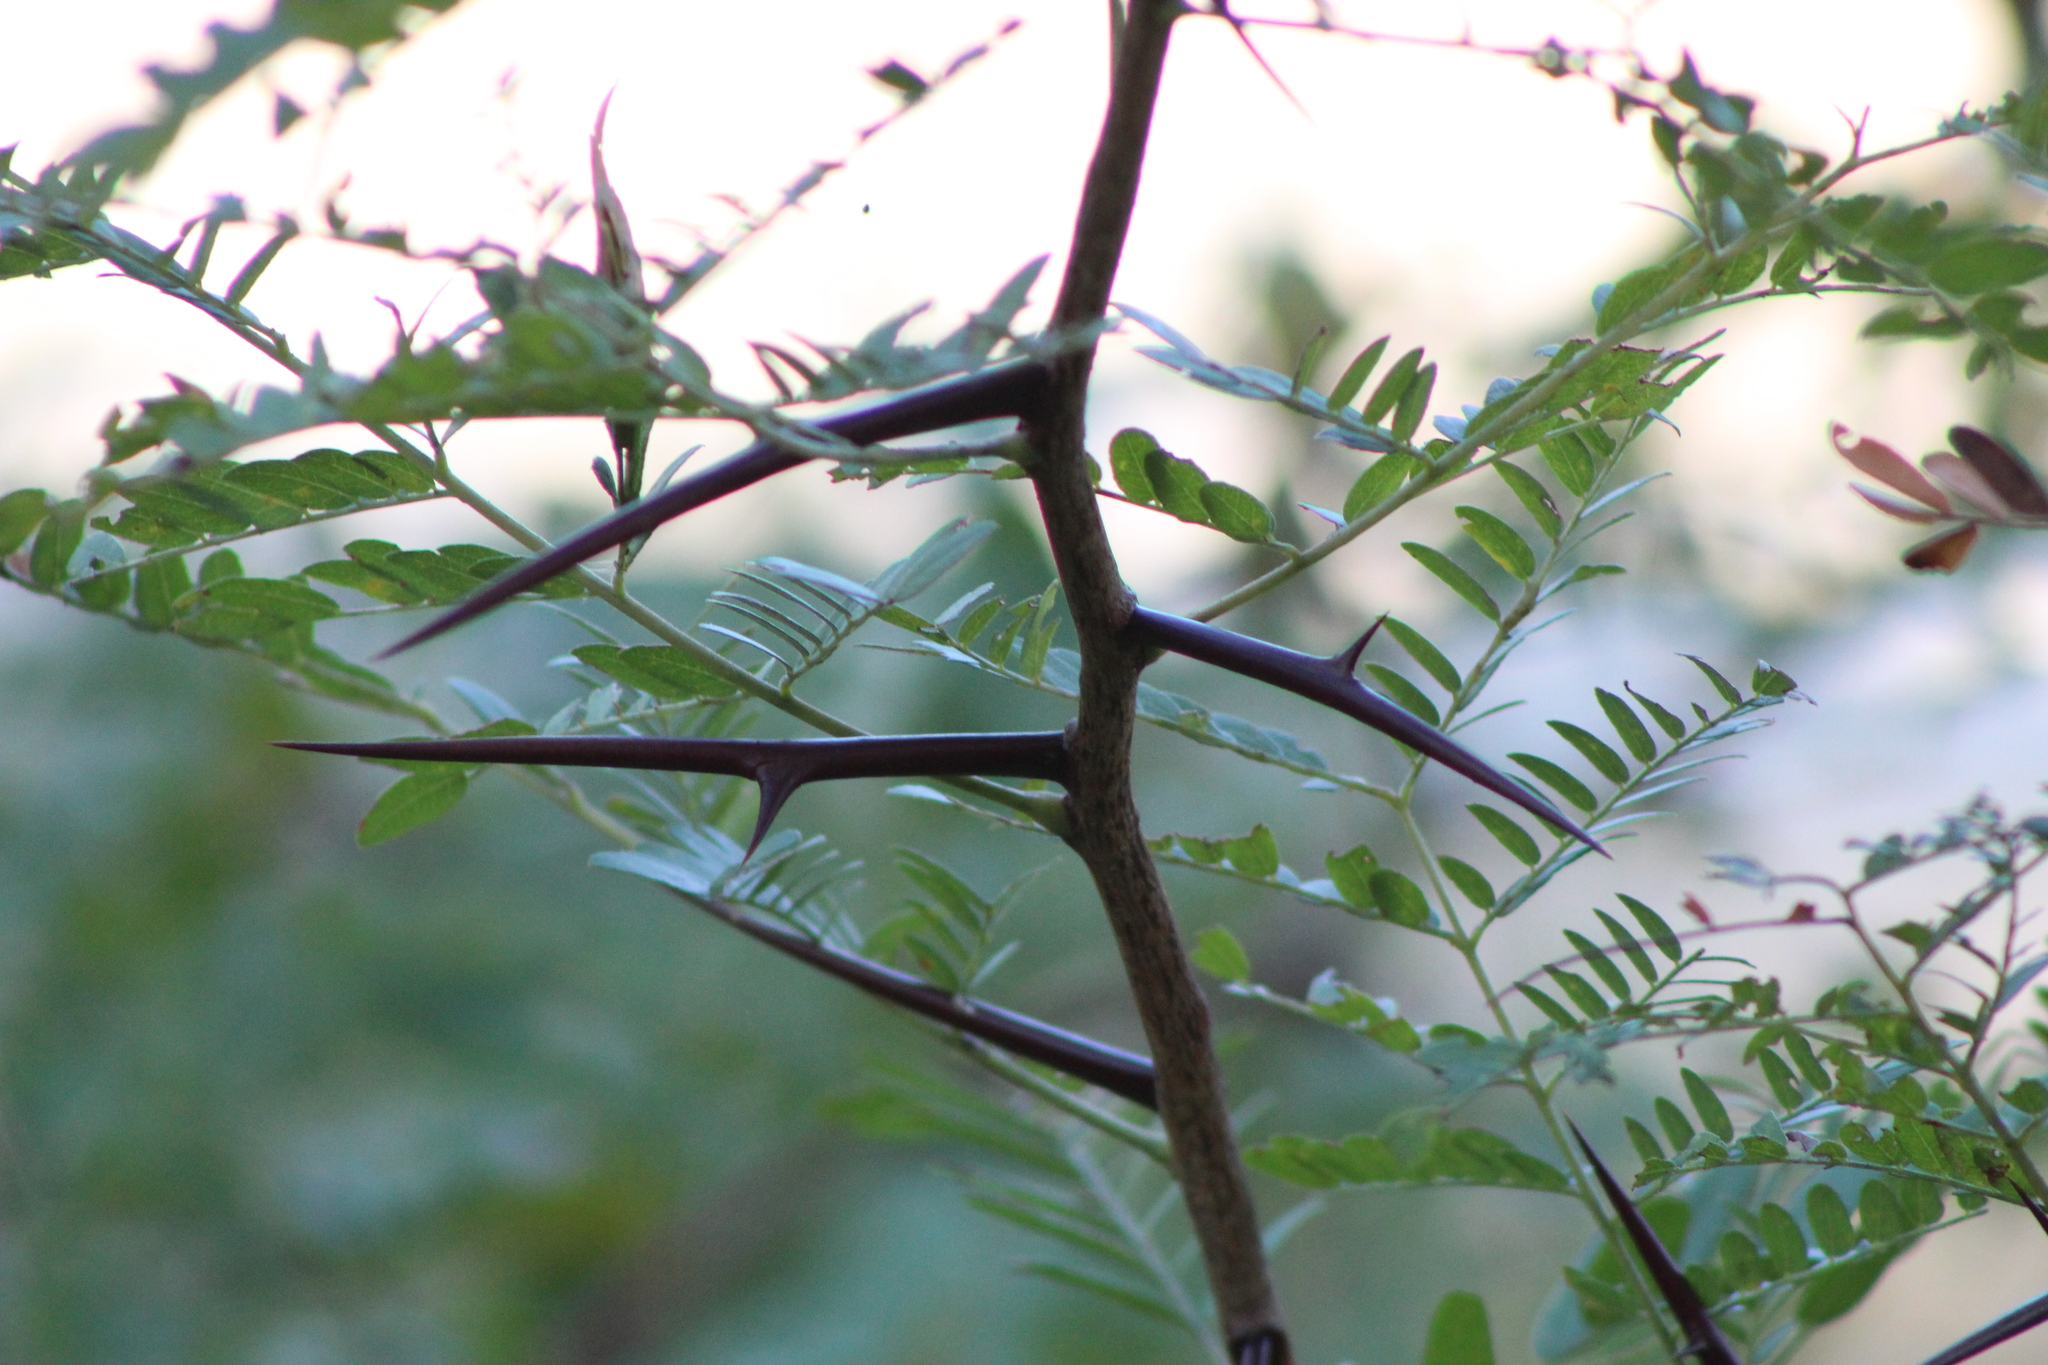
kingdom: Plantae
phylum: Tracheophyta
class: Magnoliopsida
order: Fabales
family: Fabaceae
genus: Gleditsia
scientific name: Gleditsia triacanthos
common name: Common honeylocust
